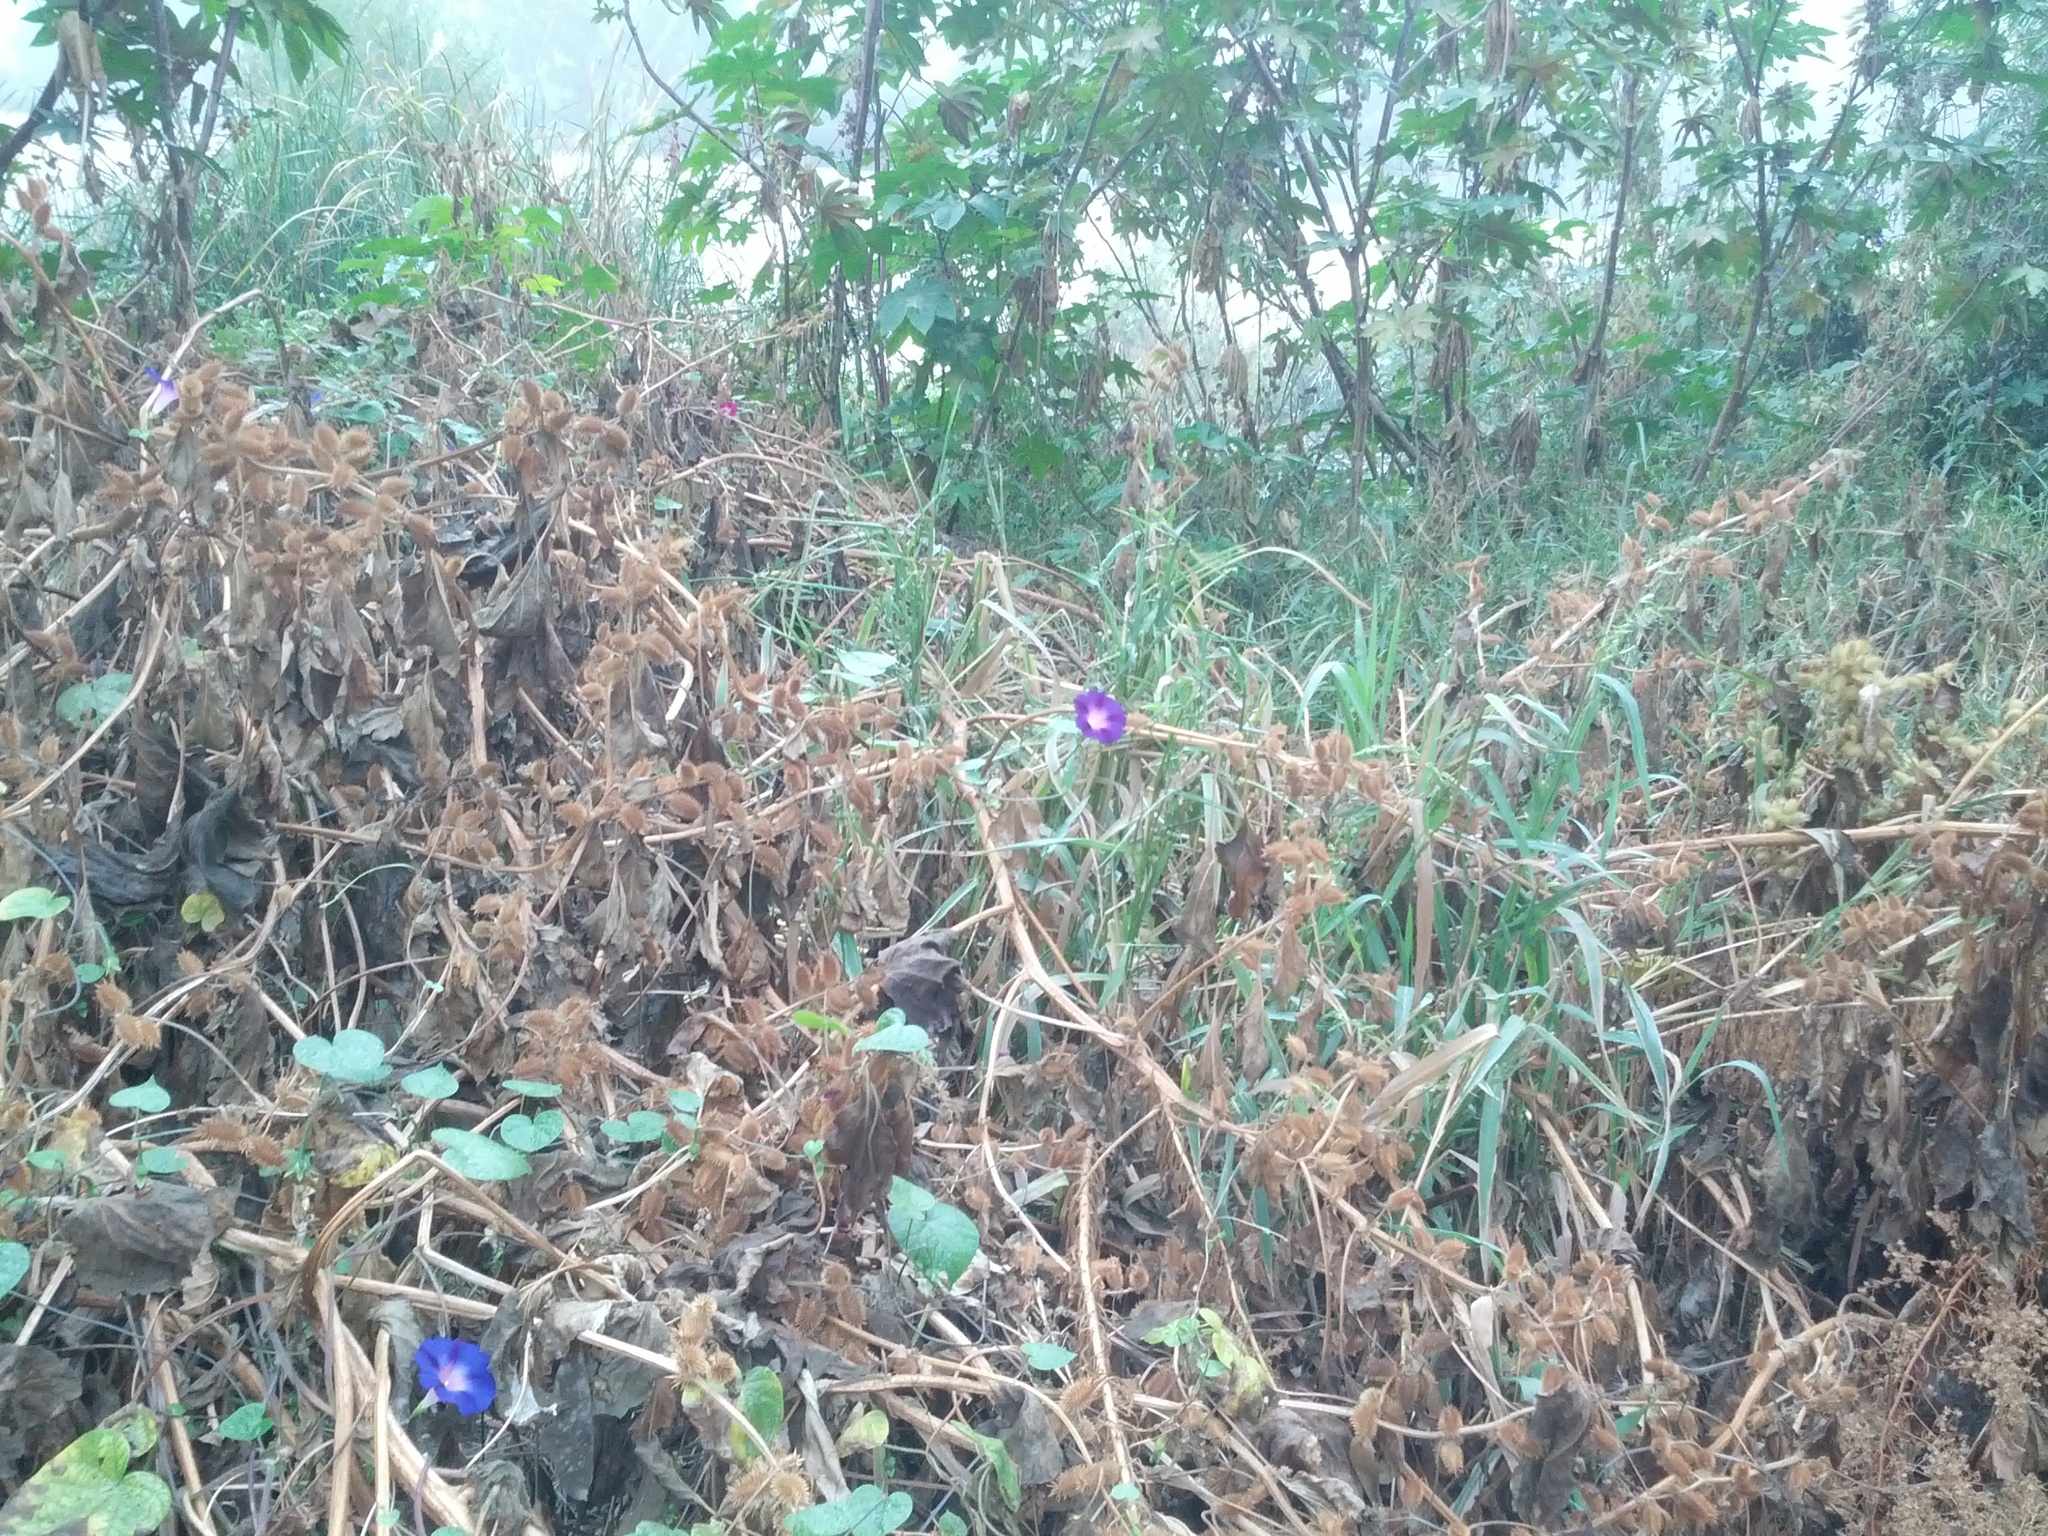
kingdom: Plantae
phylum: Tracheophyta
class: Magnoliopsida
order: Solanales
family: Convolvulaceae
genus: Ipomoea
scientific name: Ipomoea purpurea
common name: Common morning-glory
